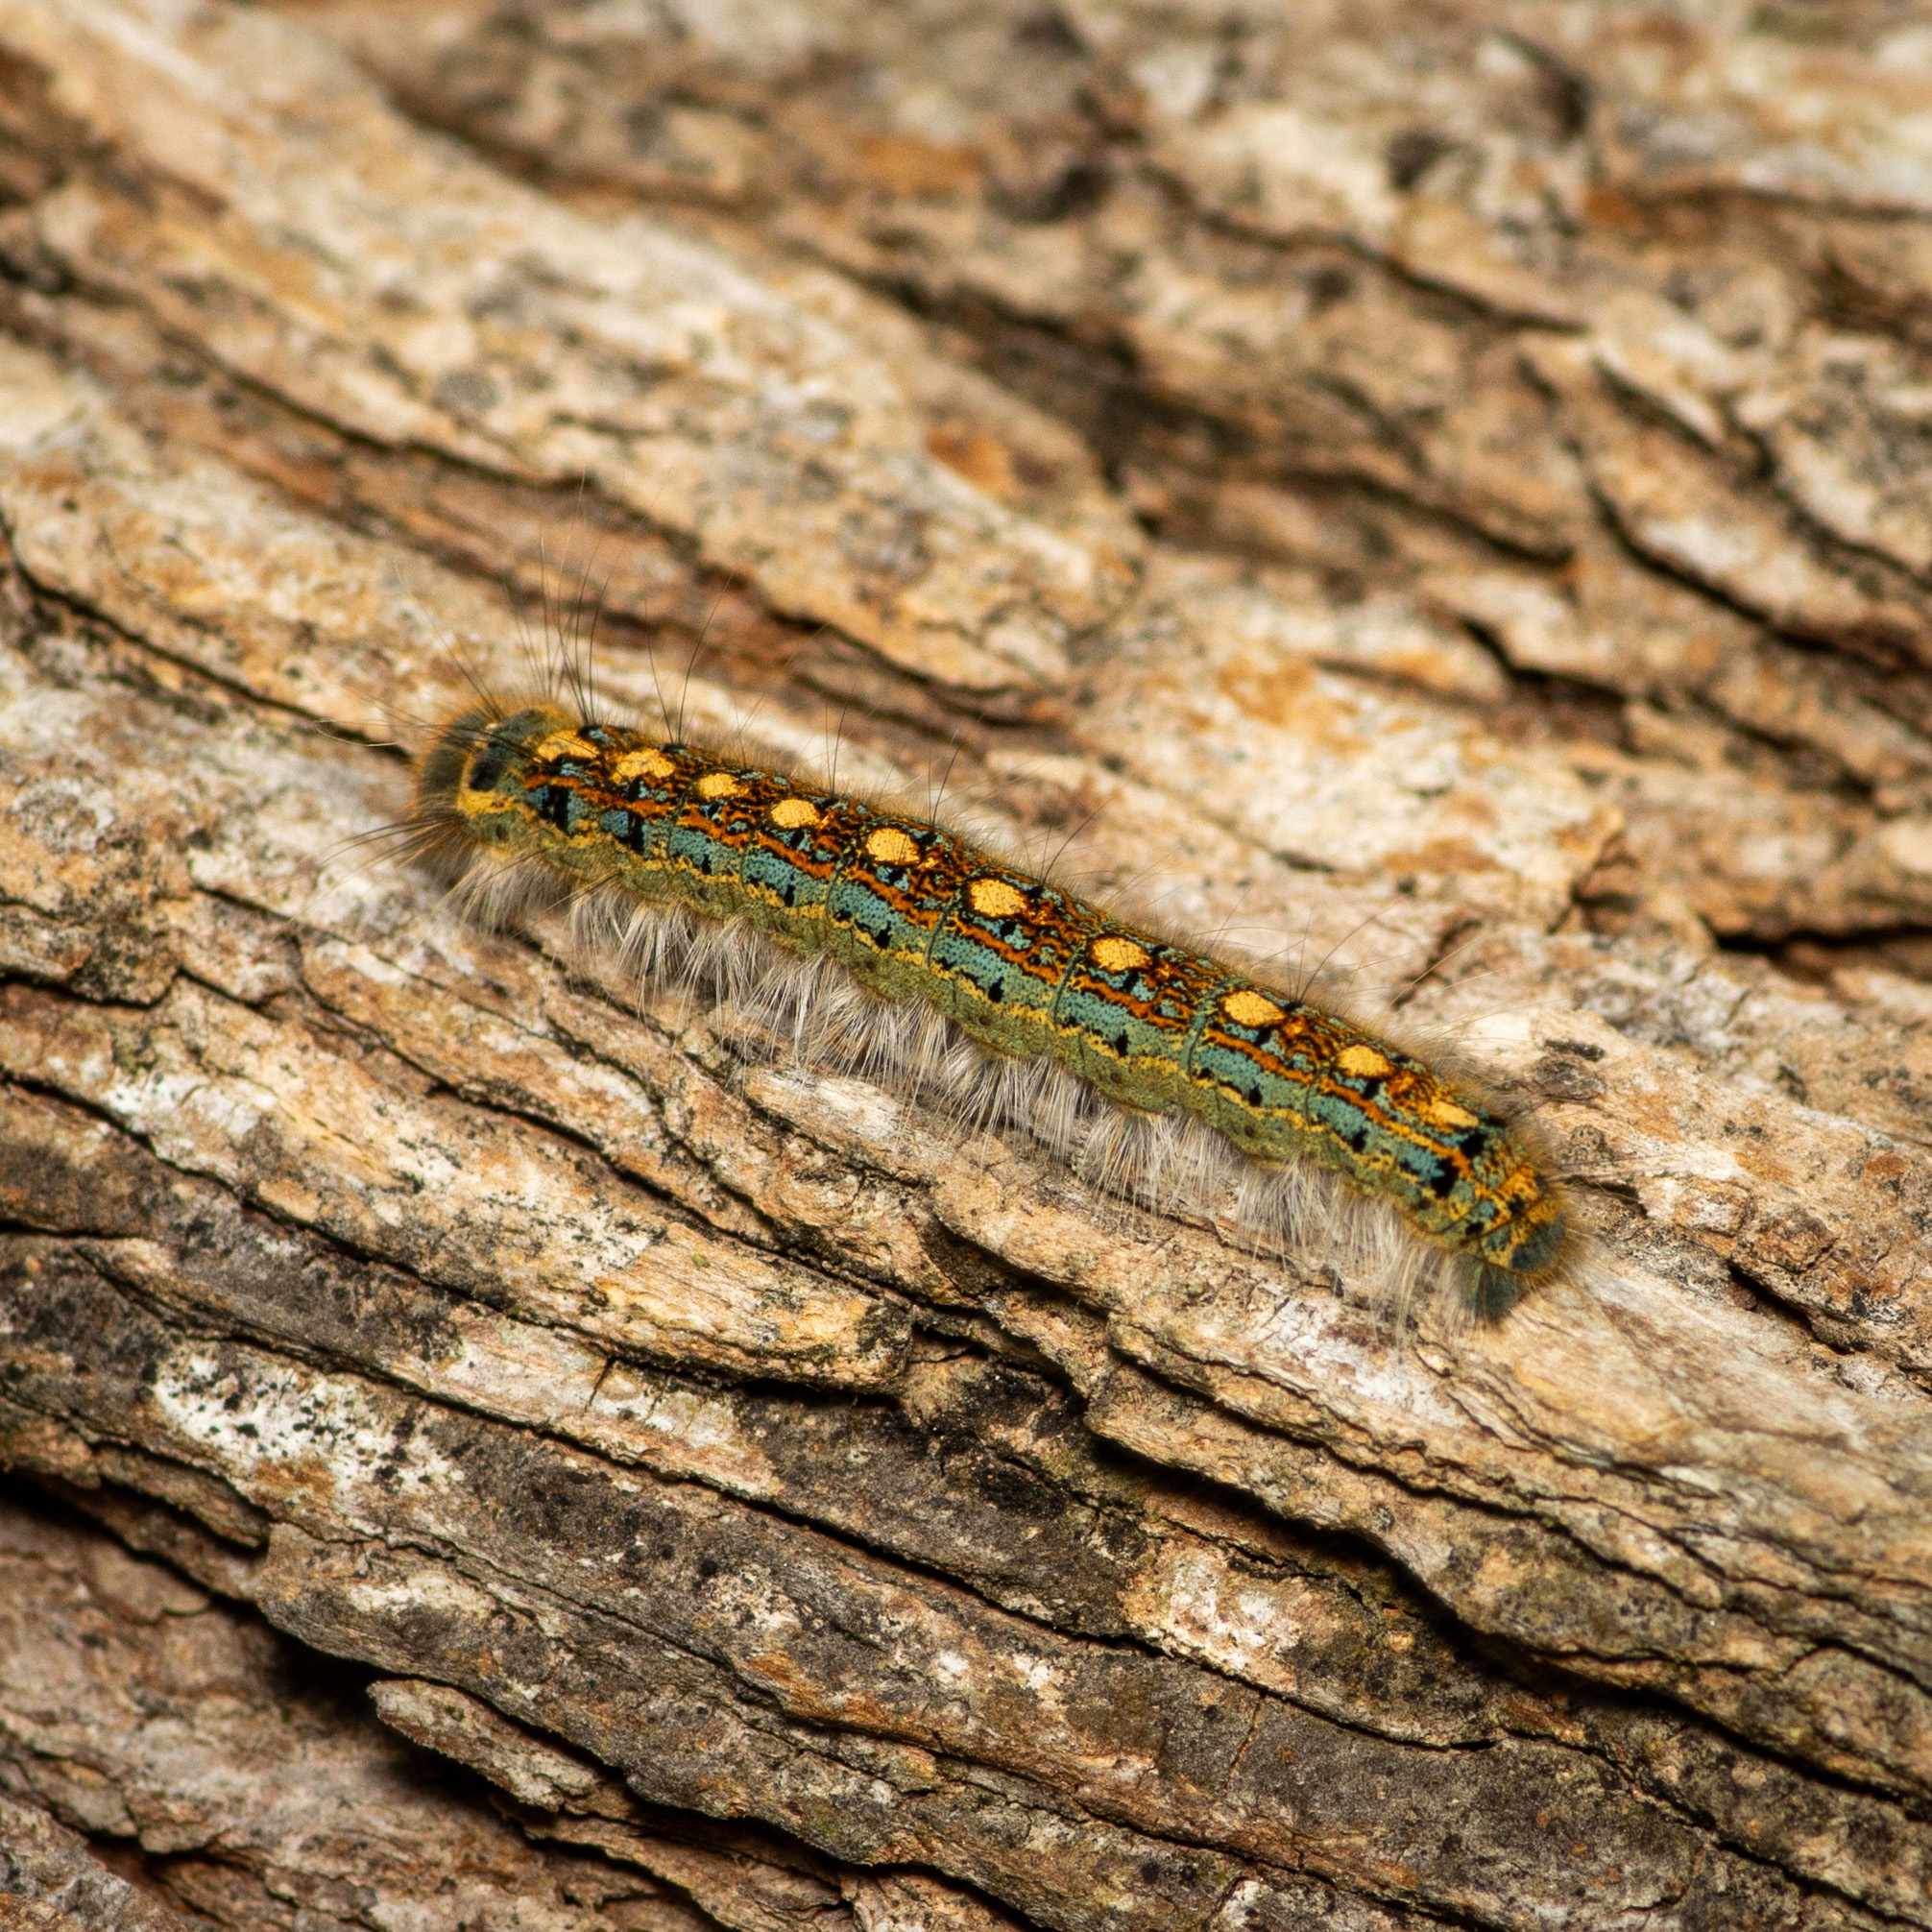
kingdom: Animalia
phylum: Arthropoda
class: Insecta
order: Lepidoptera
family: Lasiocampidae
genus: Malacosoma
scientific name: Malacosoma disstria
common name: Forest tent caterpillar
